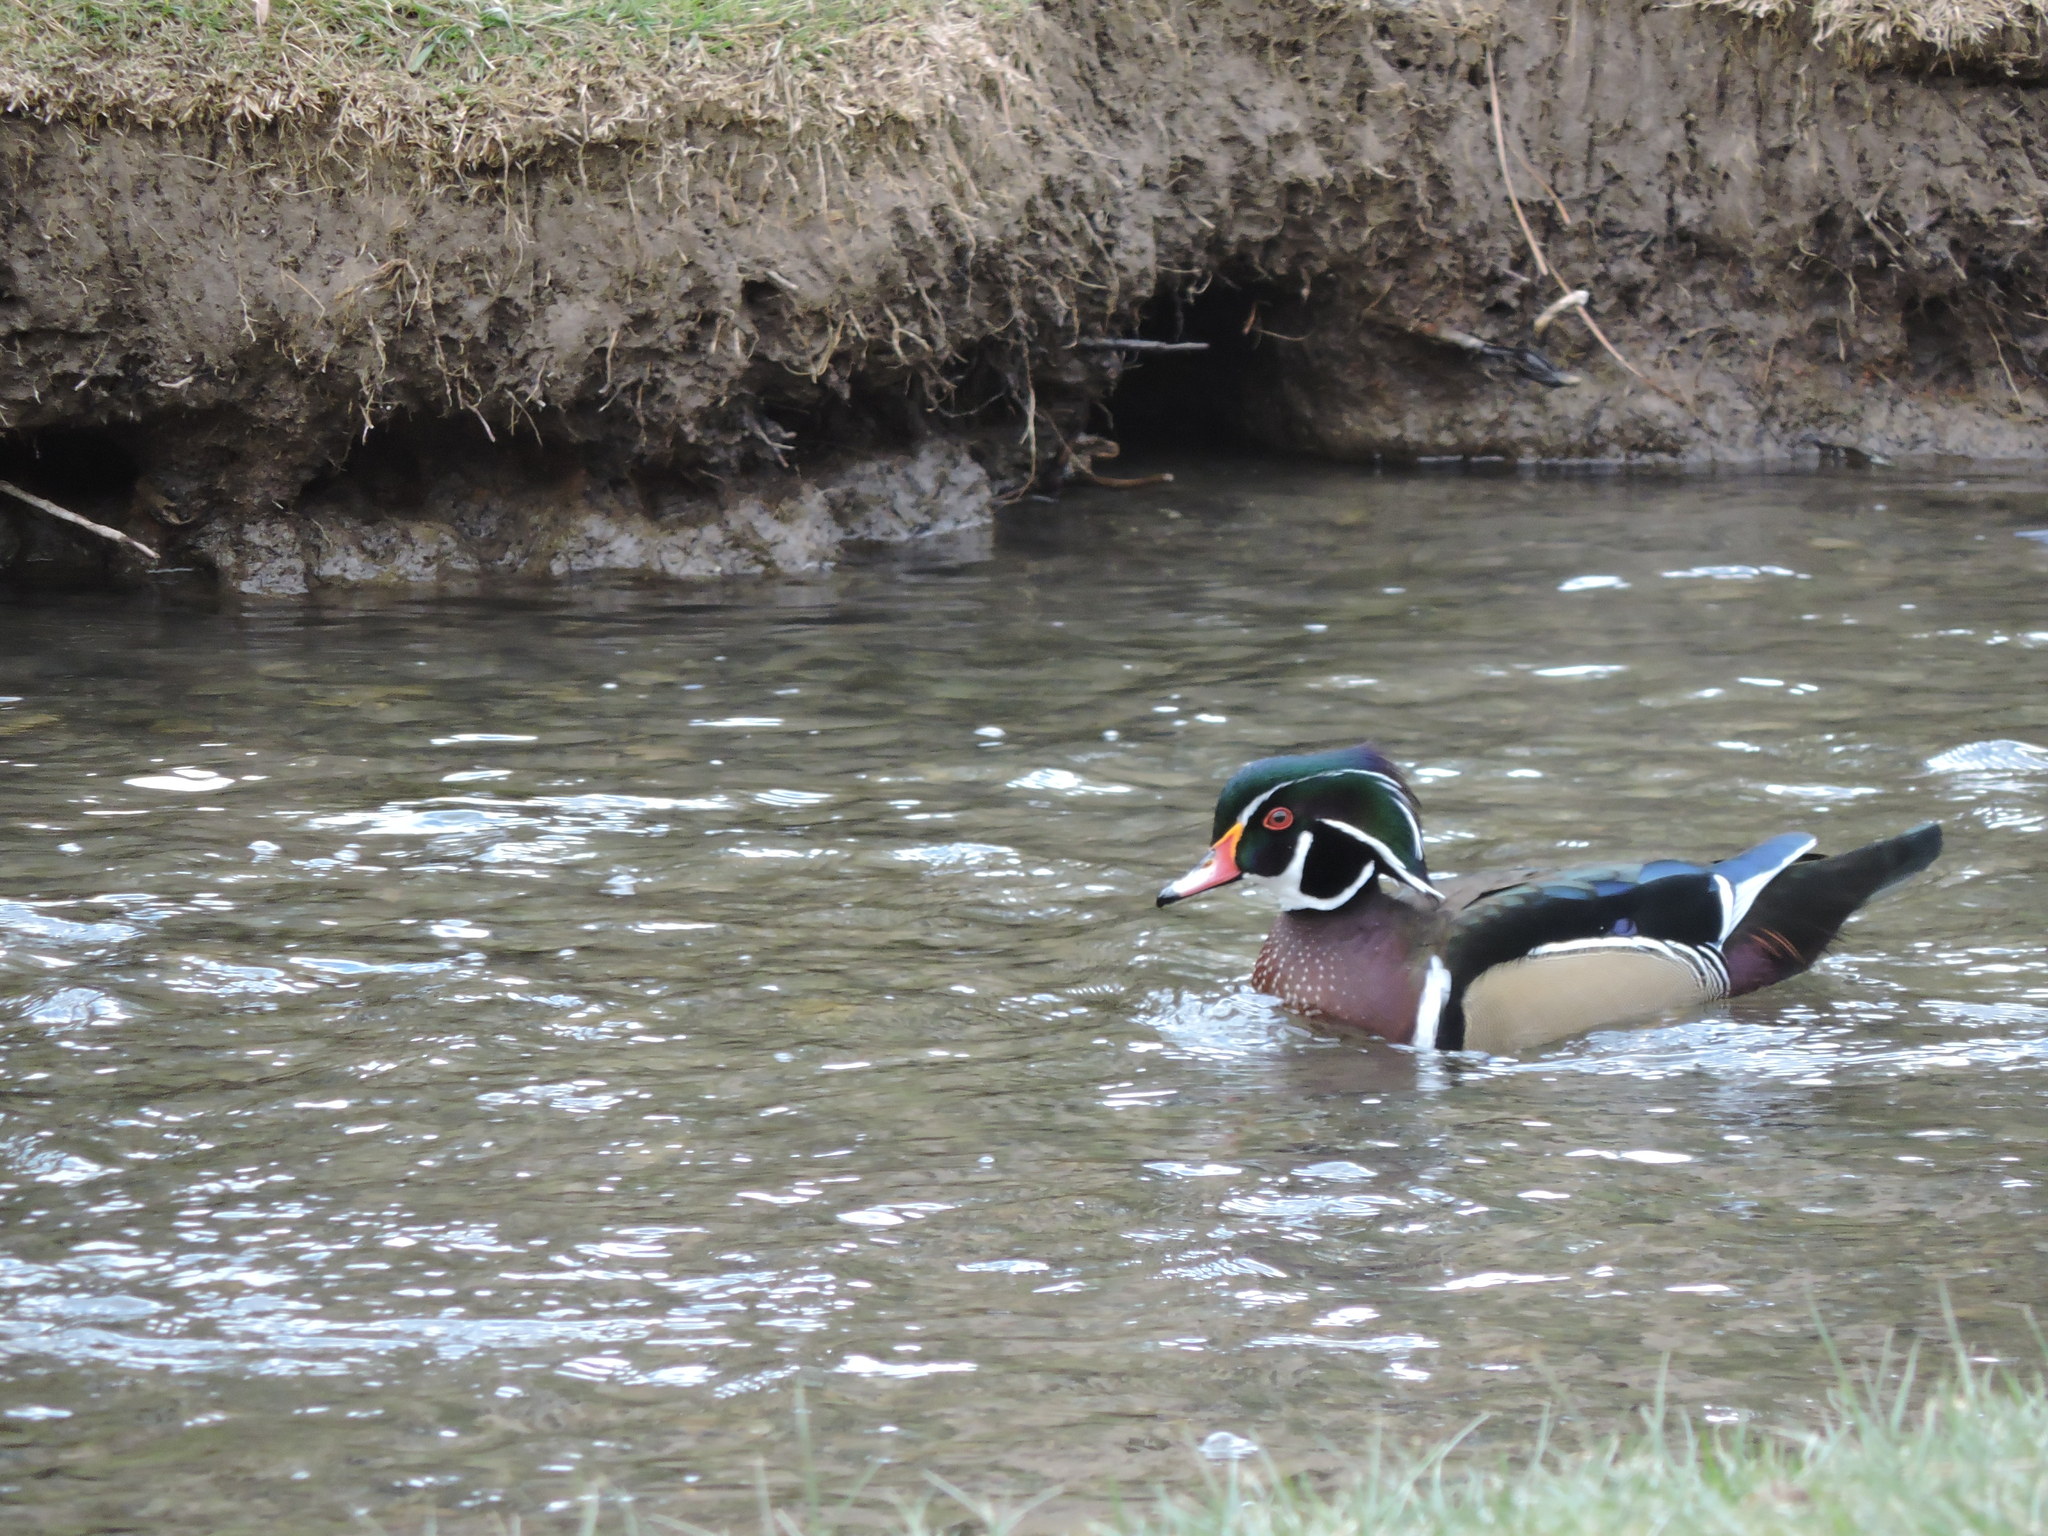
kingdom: Animalia
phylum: Chordata
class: Aves
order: Anseriformes
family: Anatidae
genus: Aix
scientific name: Aix sponsa
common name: Wood duck
